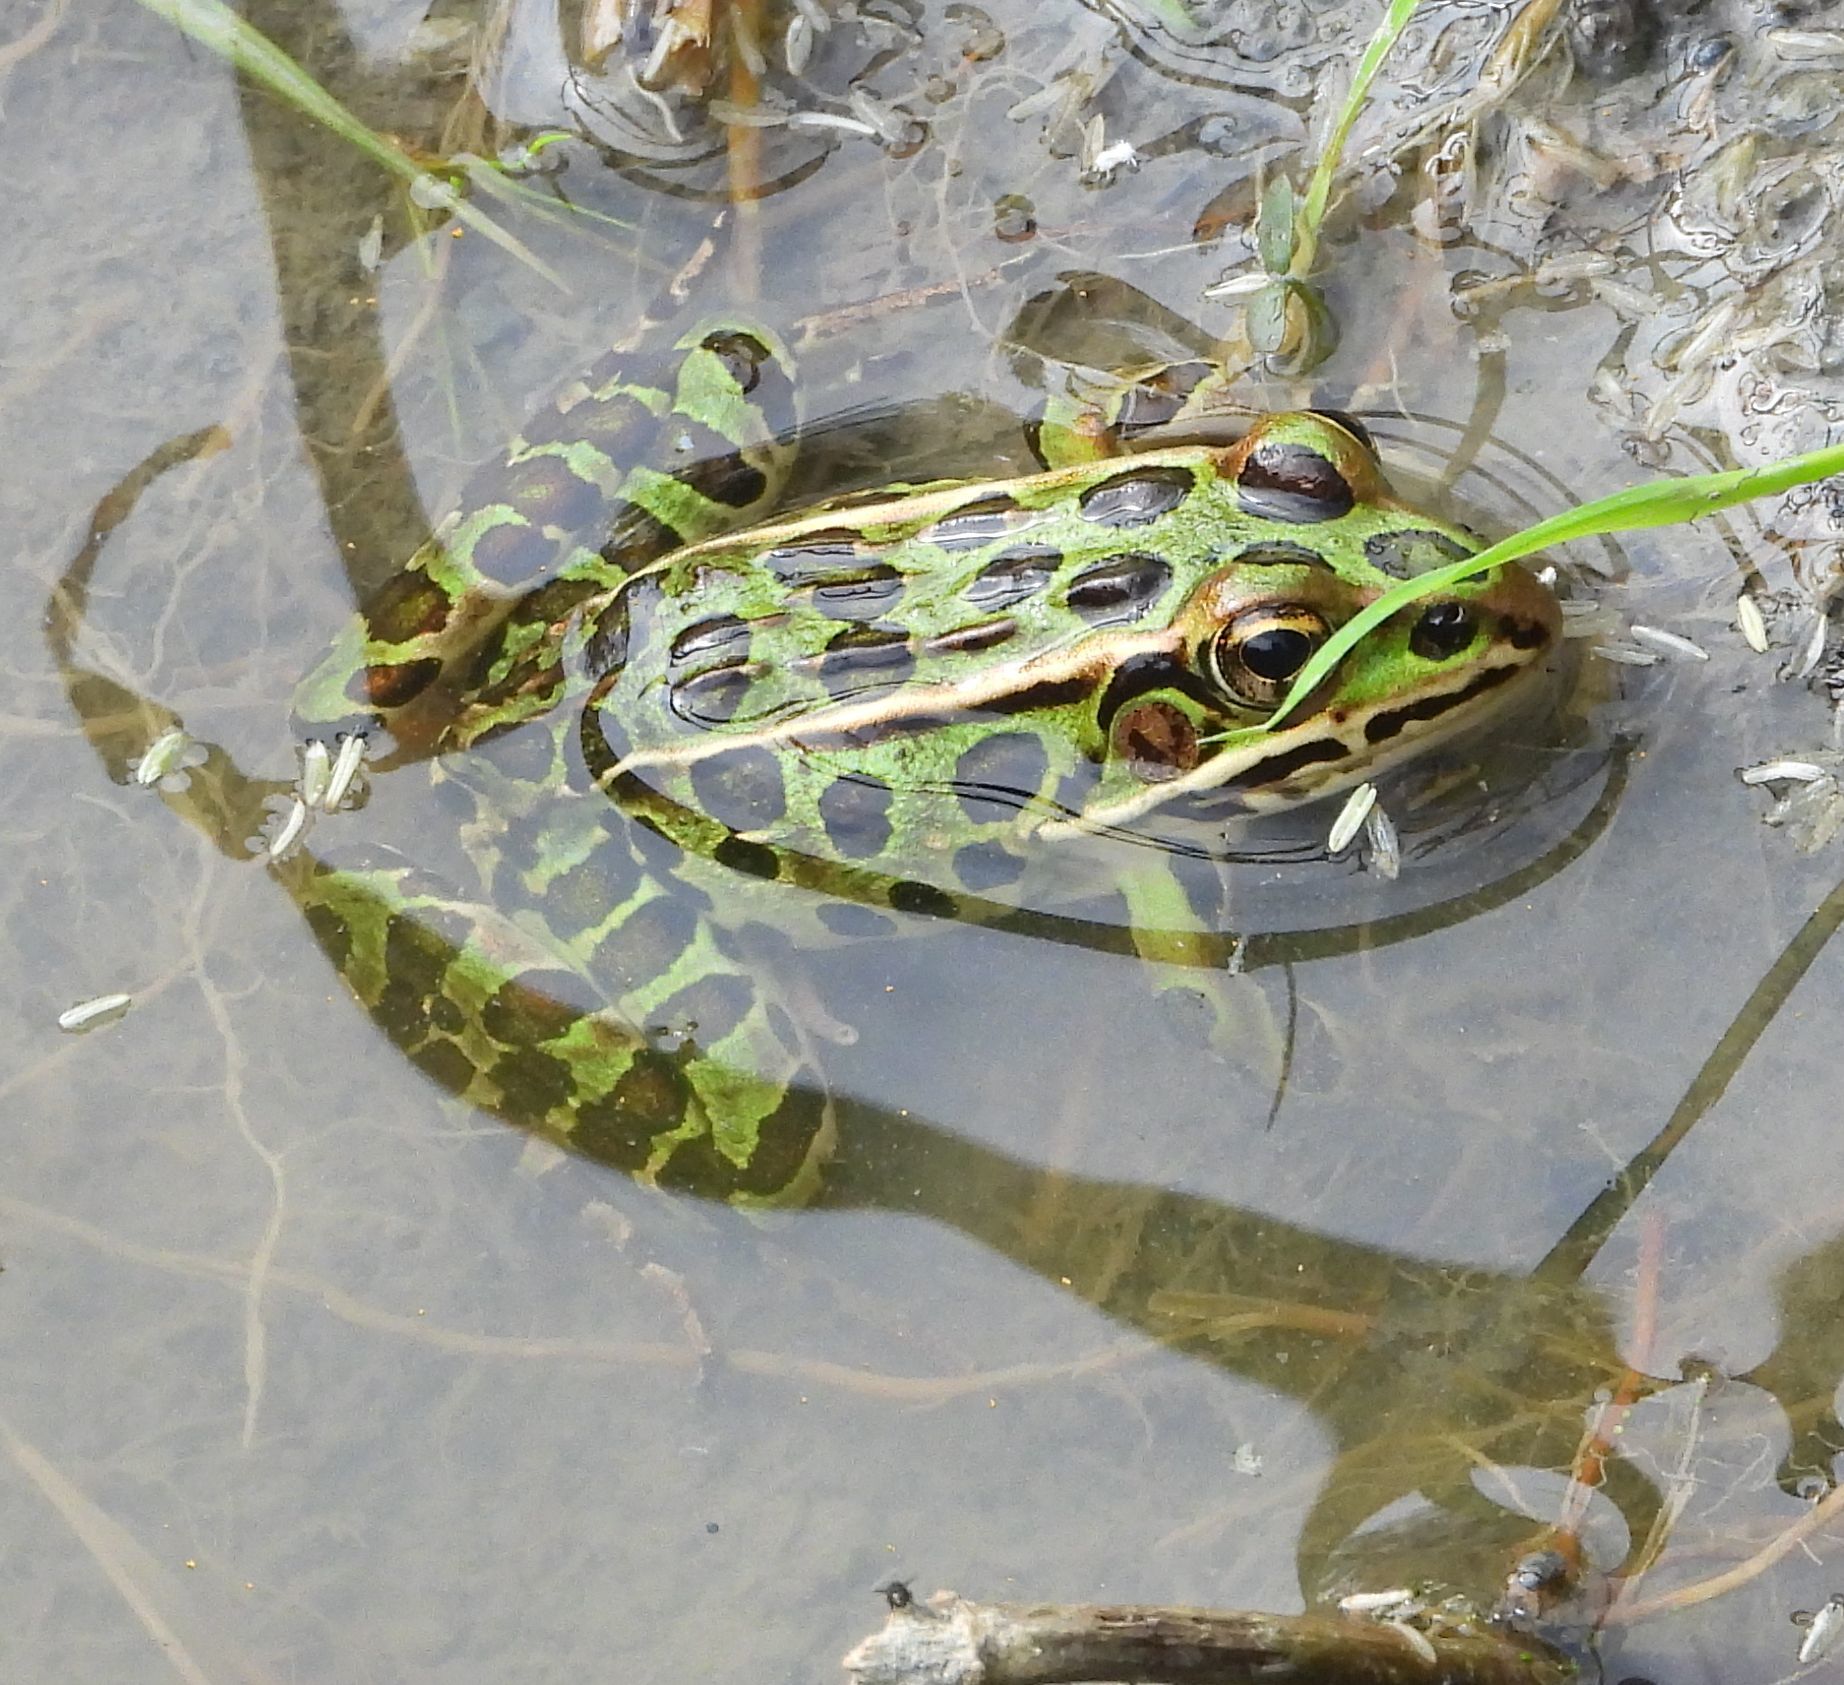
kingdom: Animalia
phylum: Chordata
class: Amphibia
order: Anura
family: Ranidae
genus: Lithobates
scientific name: Lithobates pipiens
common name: Northern leopard frog
